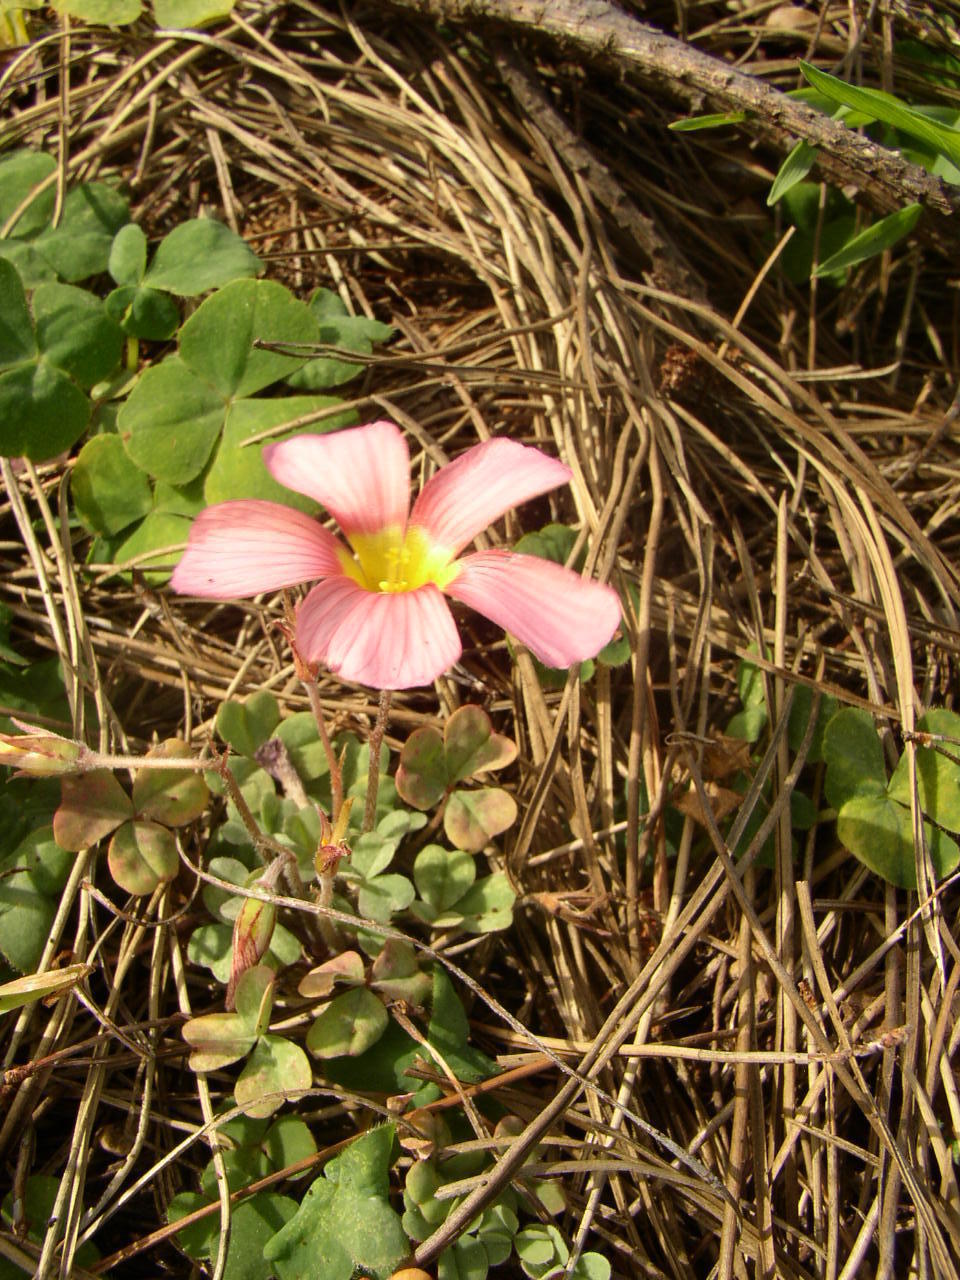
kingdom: Plantae
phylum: Tracheophyta
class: Magnoliopsida
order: Oxalidales
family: Oxalidaceae
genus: Oxalis
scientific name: Oxalis obtusa
